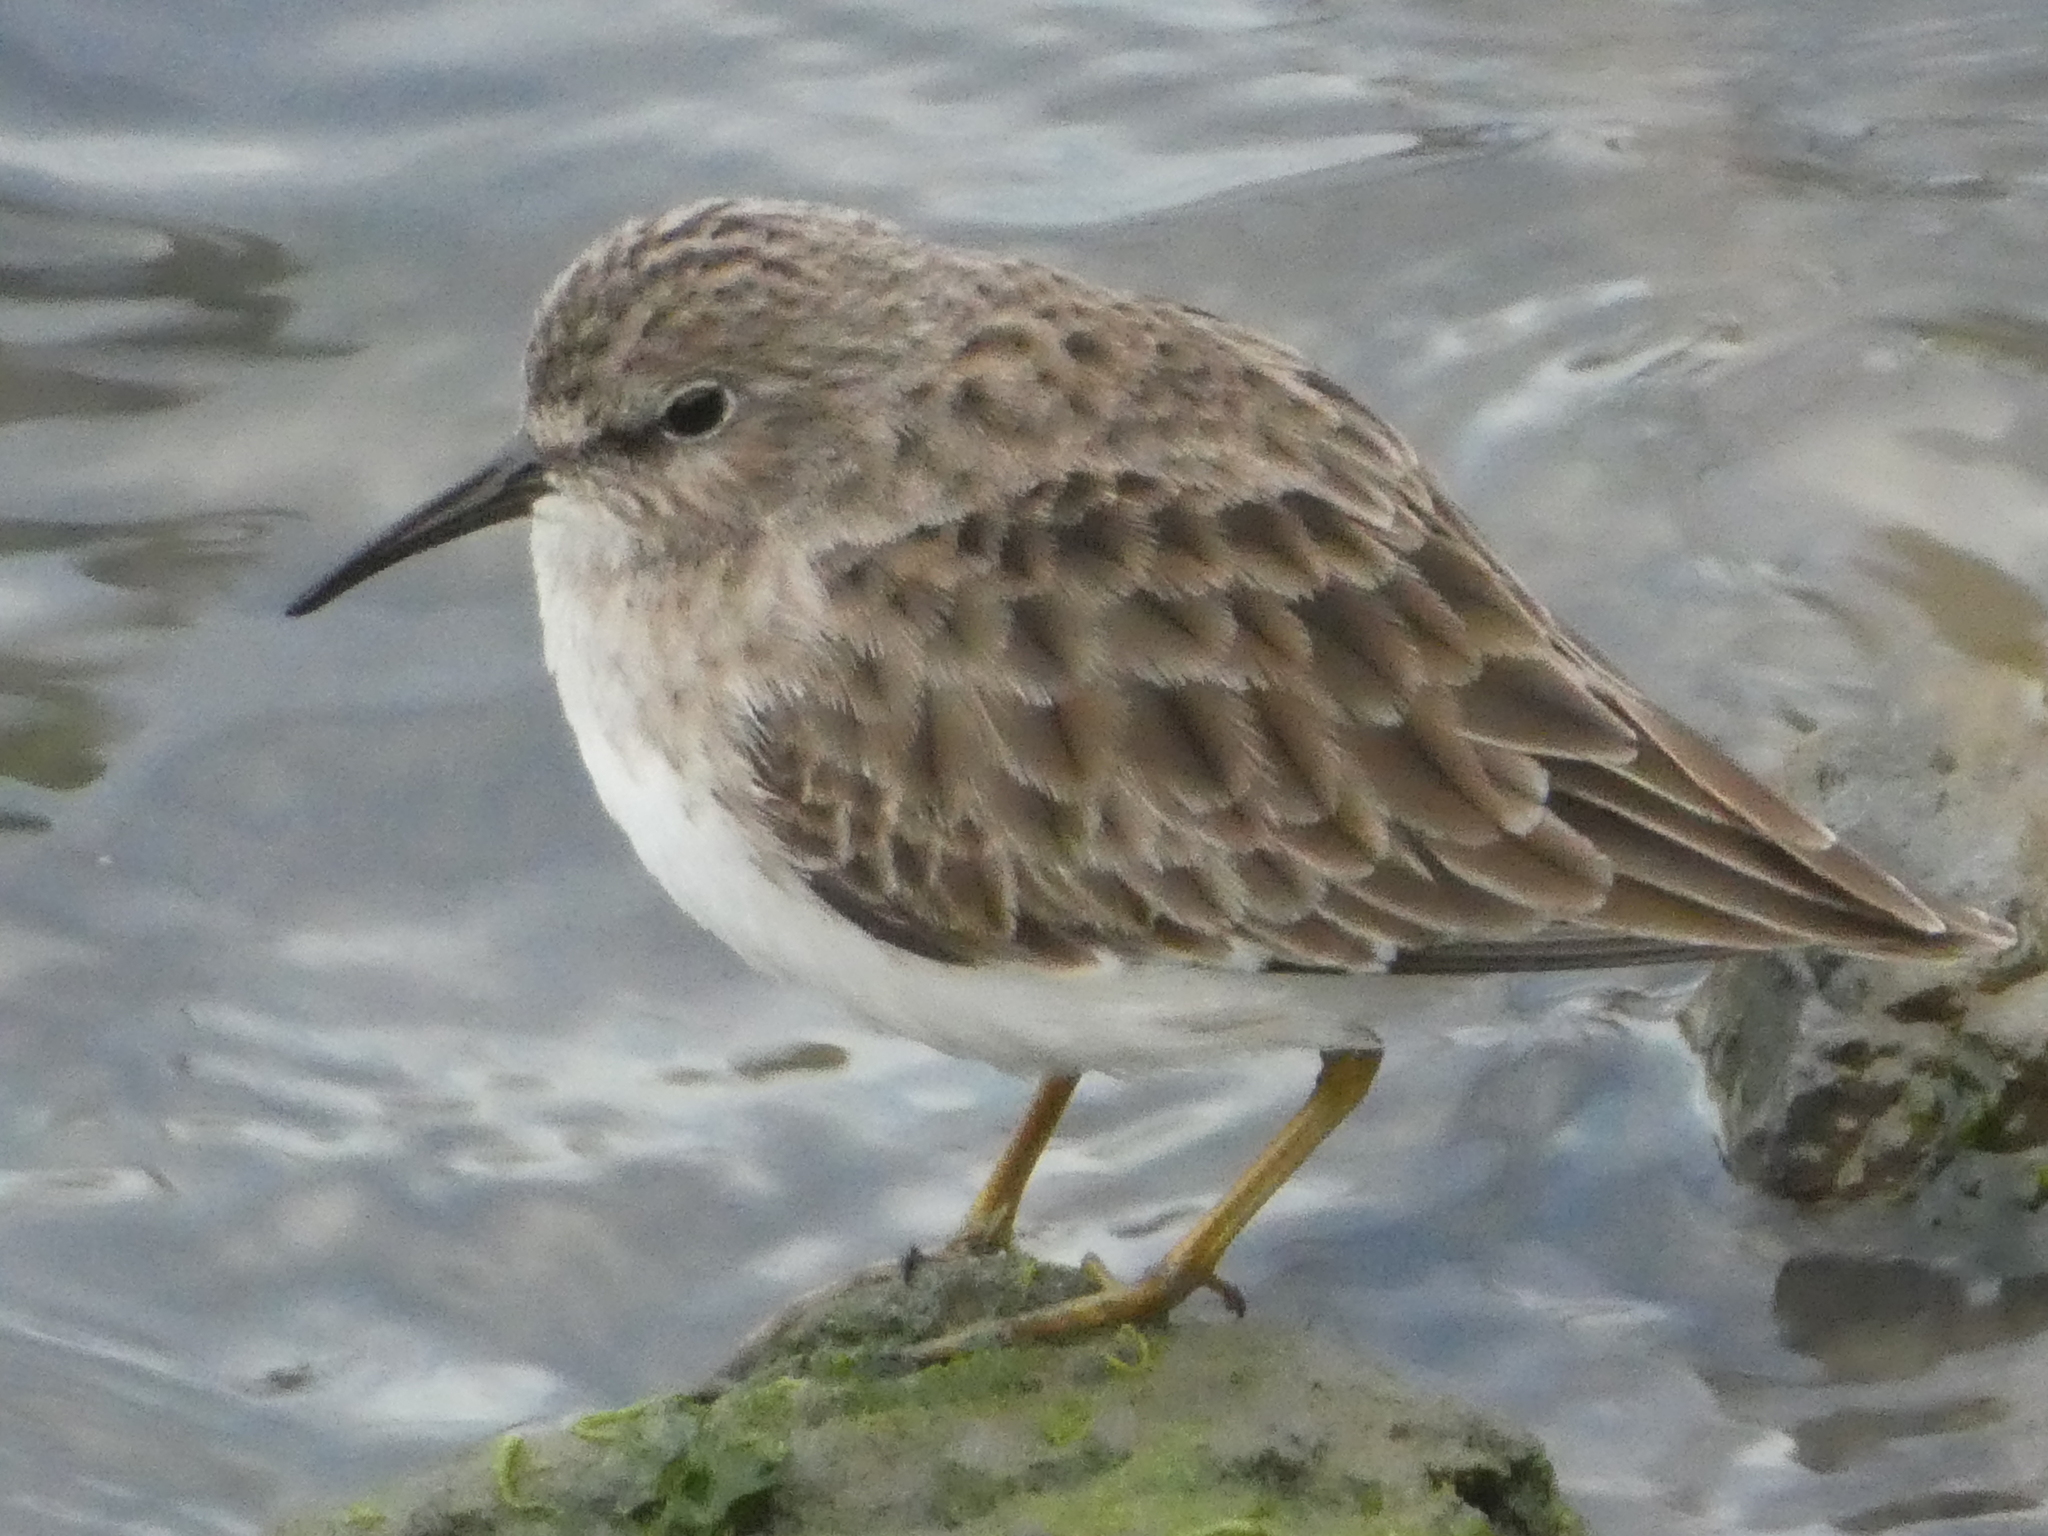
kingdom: Animalia
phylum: Chordata
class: Aves
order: Charadriiformes
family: Scolopacidae
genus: Calidris
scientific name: Calidris minutilla
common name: Least sandpiper
